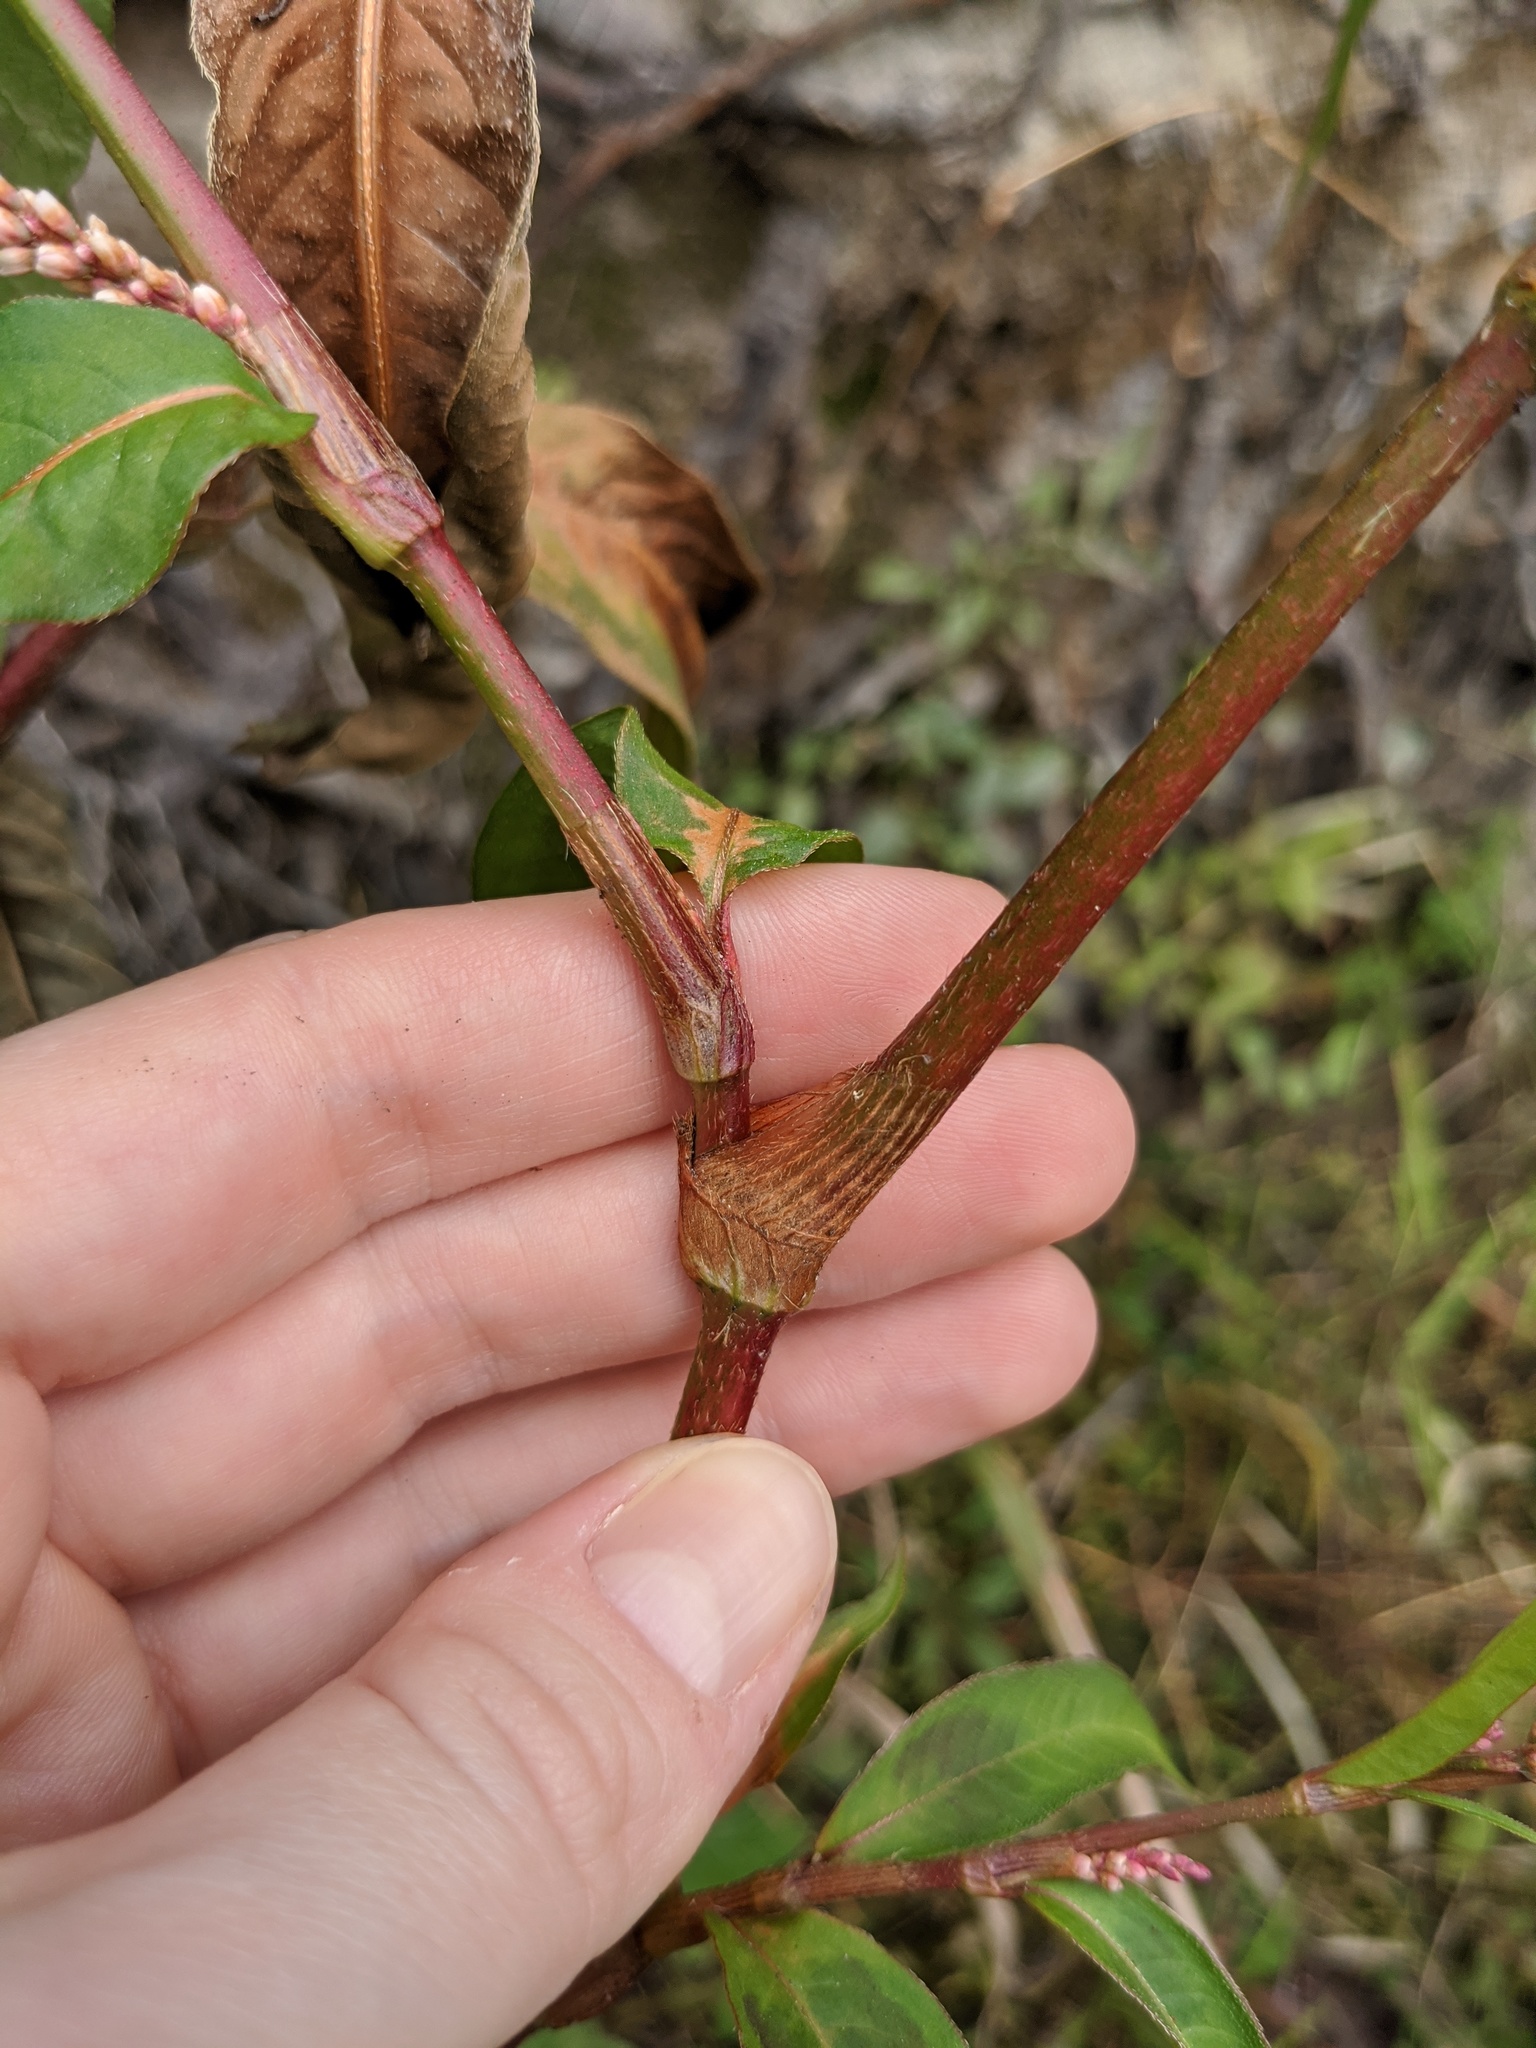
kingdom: Plantae
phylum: Tracheophyta
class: Magnoliopsida
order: Caryophyllales
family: Polygonaceae
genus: Persicaria
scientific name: Persicaria extremiorientalis
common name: Far-eastern smartweed
